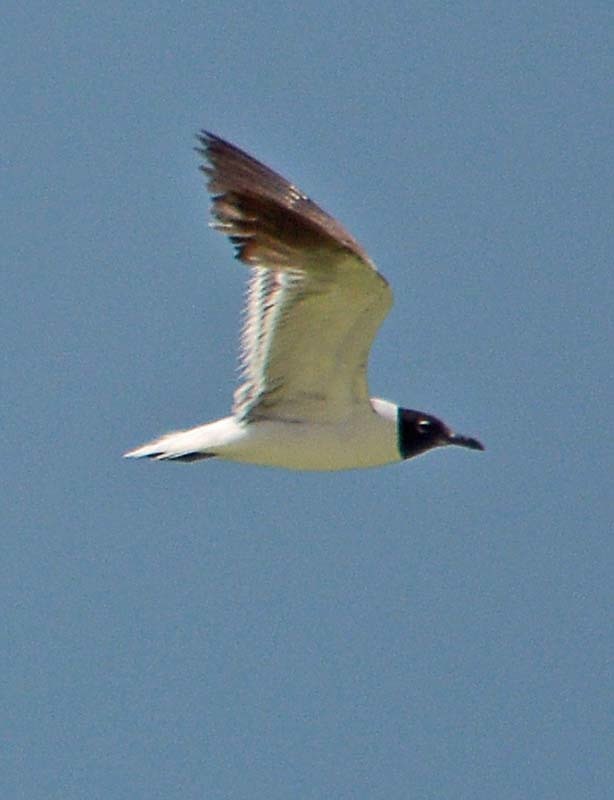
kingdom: Animalia
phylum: Chordata
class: Aves
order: Charadriiformes
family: Laridae
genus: Leucophaeus
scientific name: Leucophaeus atricilla
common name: Laughing gull
